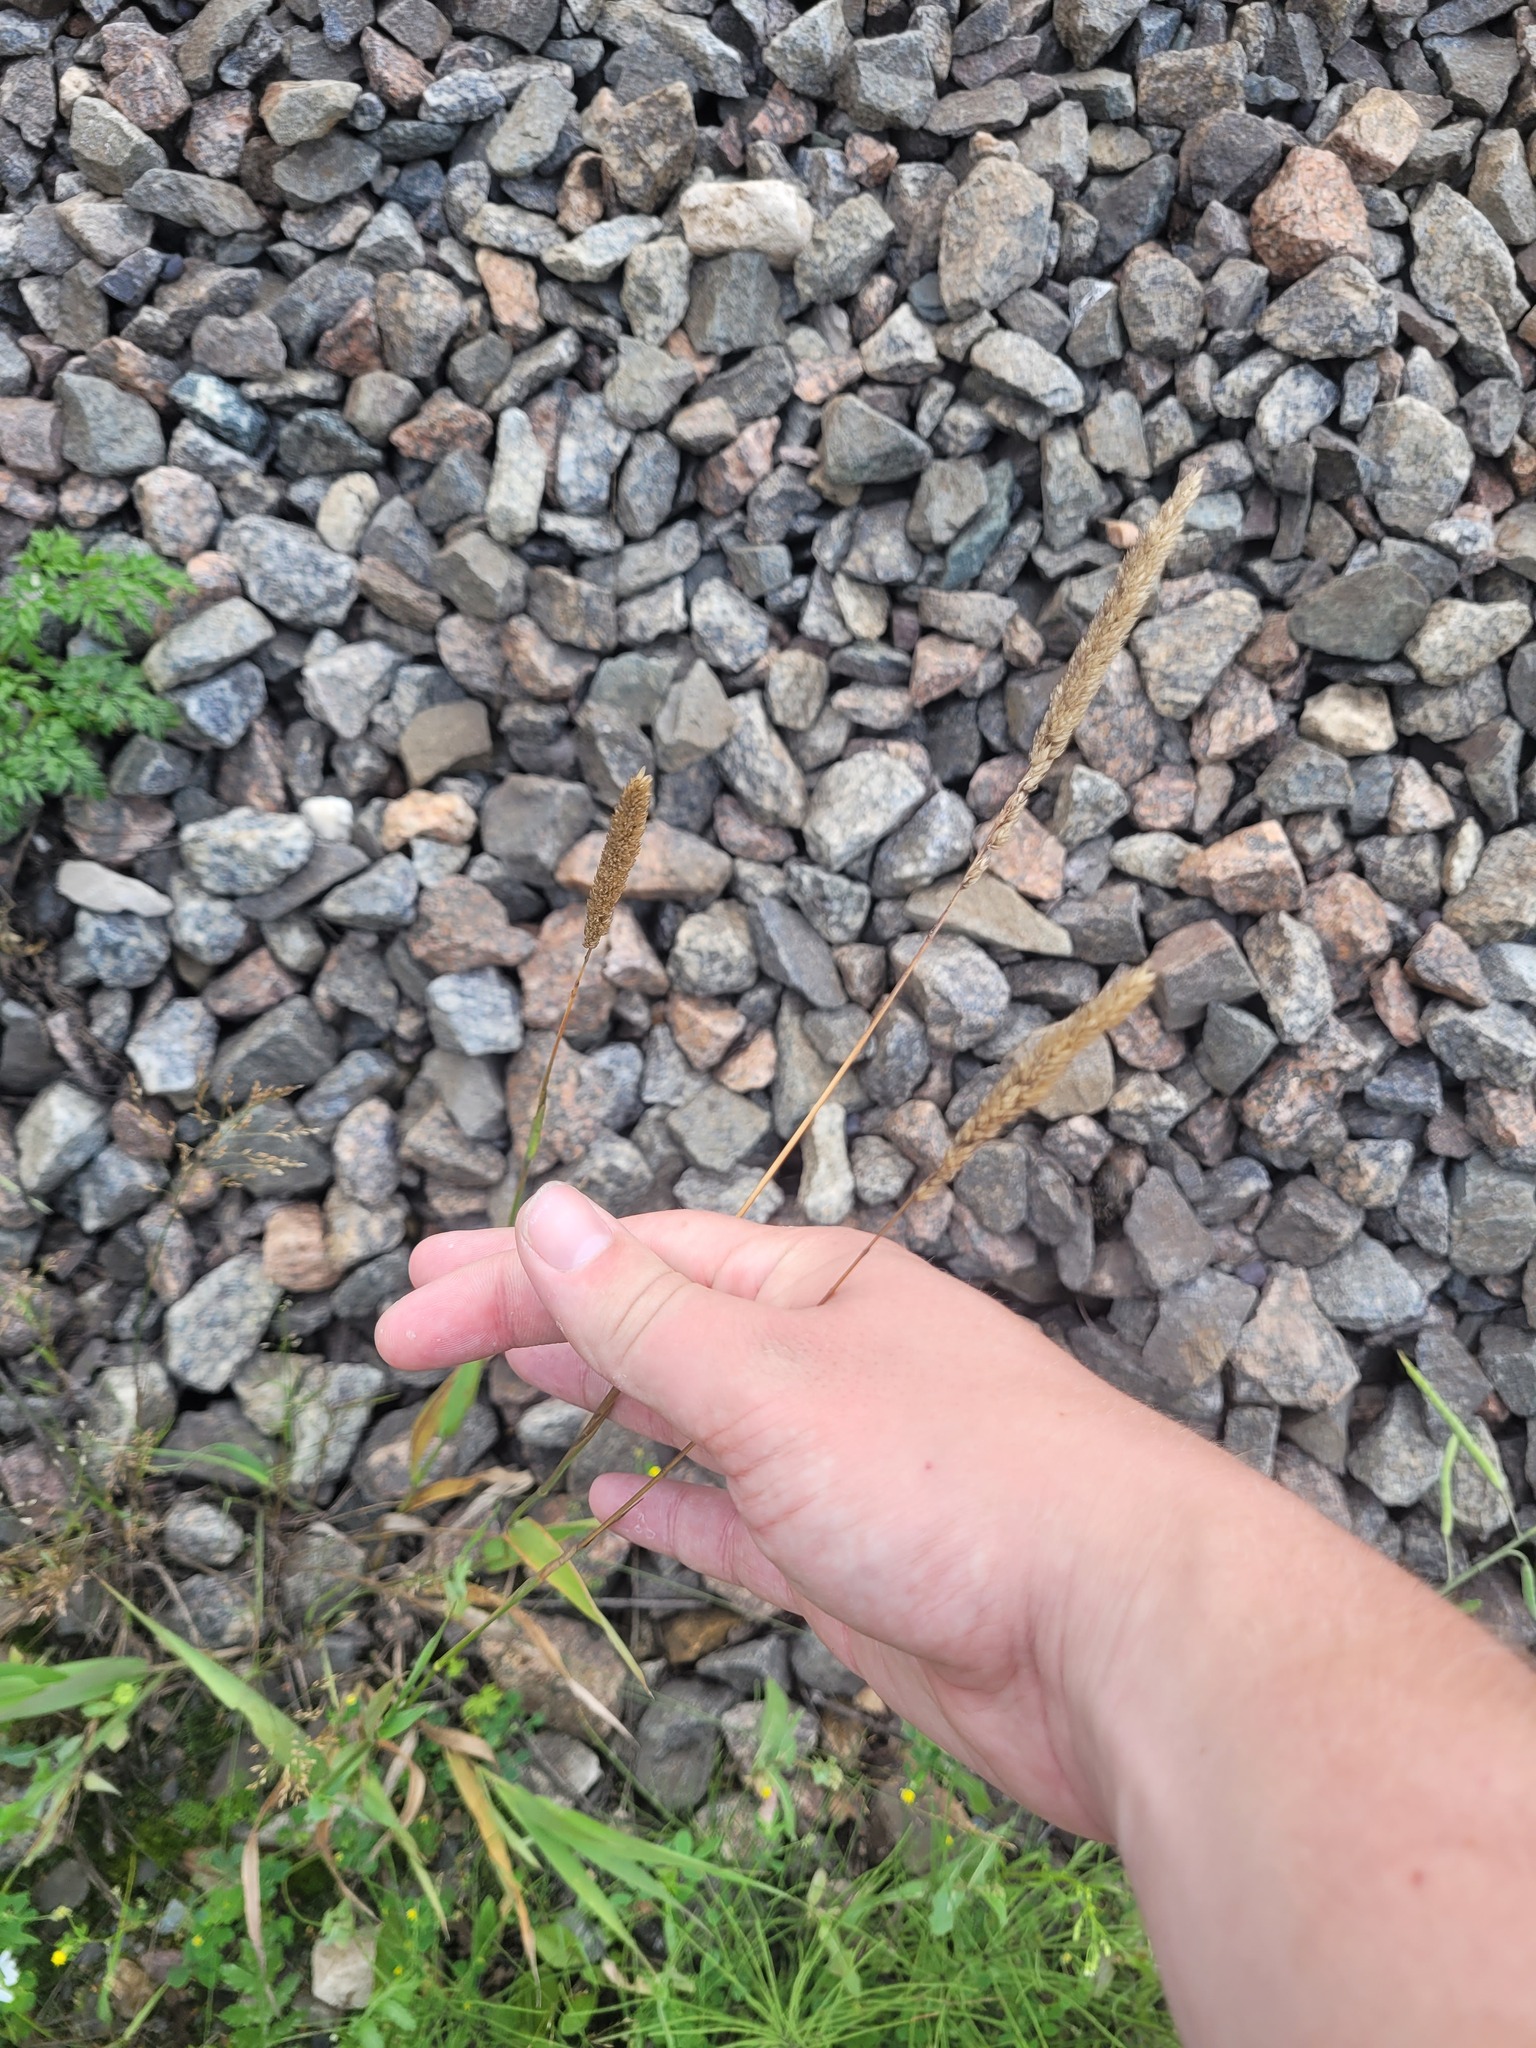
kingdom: Plantae
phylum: Tracheophyta
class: Liliopsida
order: Poales
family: Poaceae
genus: Phalaris
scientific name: Phalaris arundinacea
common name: Reed canary-grass
